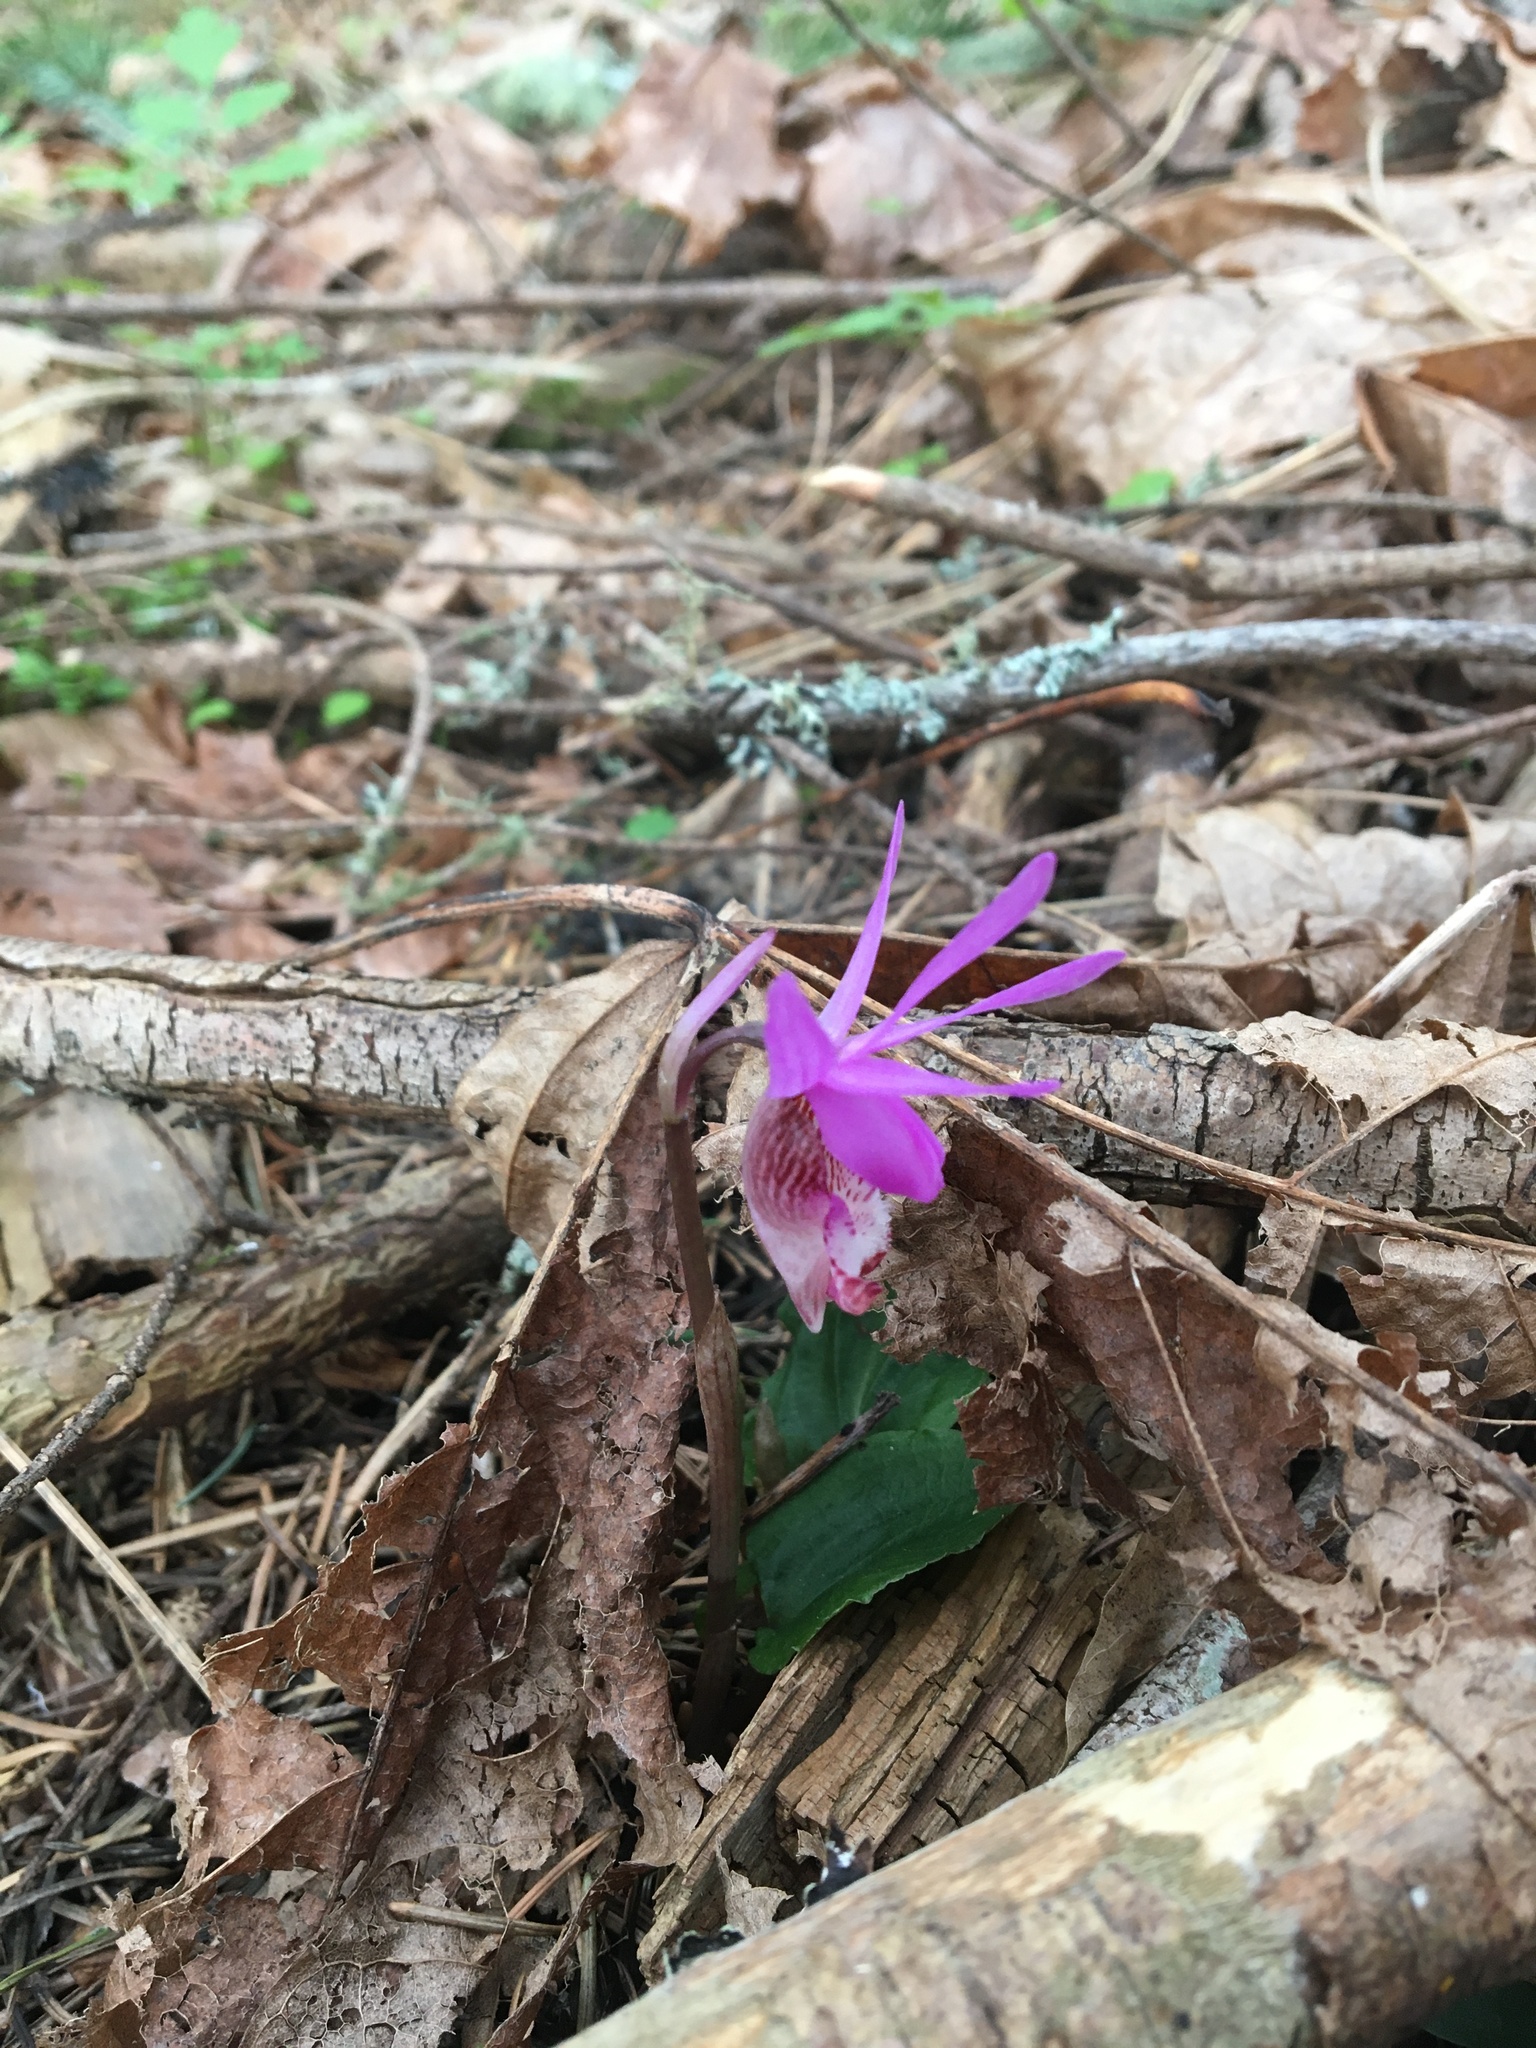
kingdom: Plantae
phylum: Tracheophyta
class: Liliopsida
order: Asparagales
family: Orchidaceae
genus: Calypso
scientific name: Calypso bulbosa
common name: Calypso
